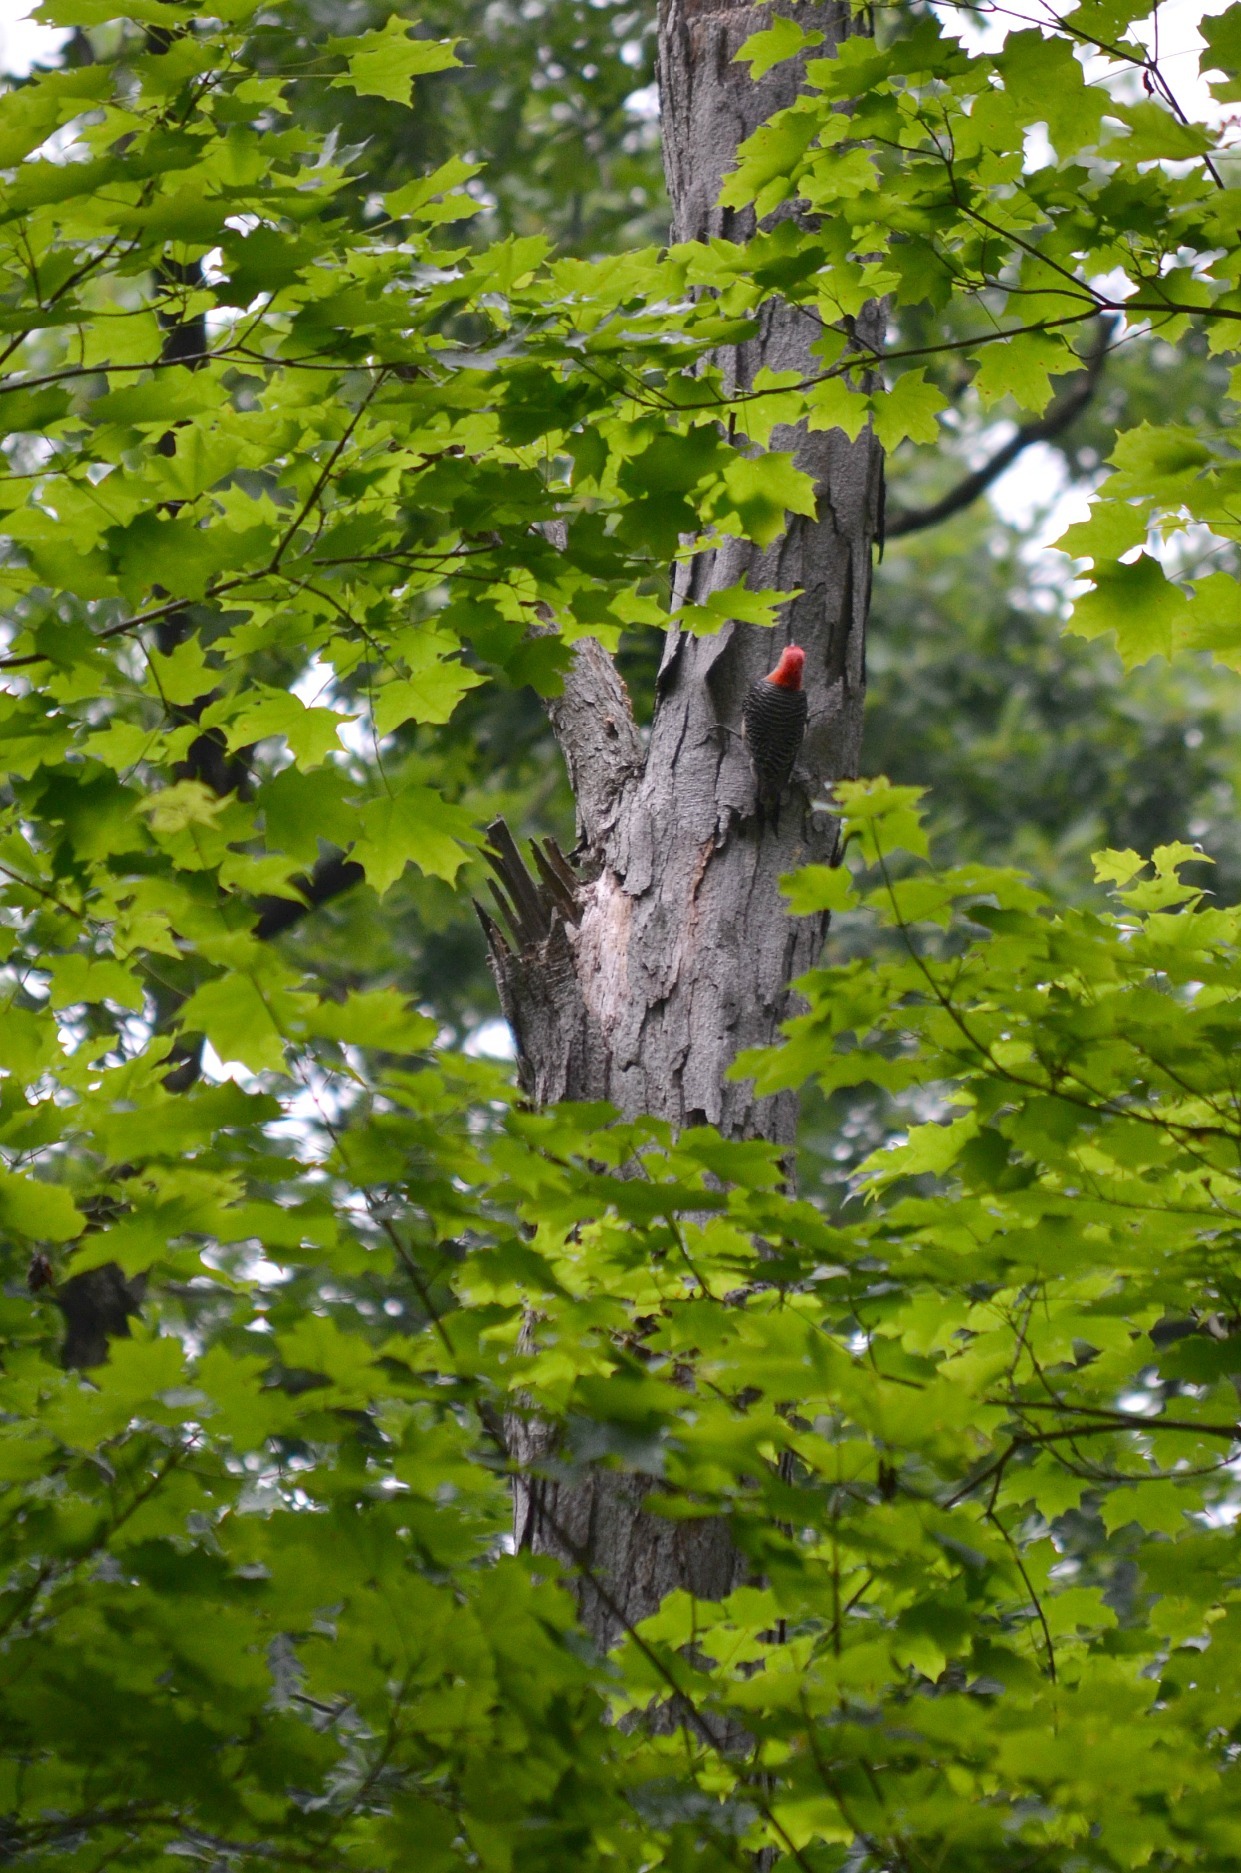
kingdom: Animalia
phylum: Chordata
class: Aves
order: Piciformes
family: Picidae
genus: Melanerpes
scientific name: Melanerpes carolinus
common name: Red-bellied woodpecker
